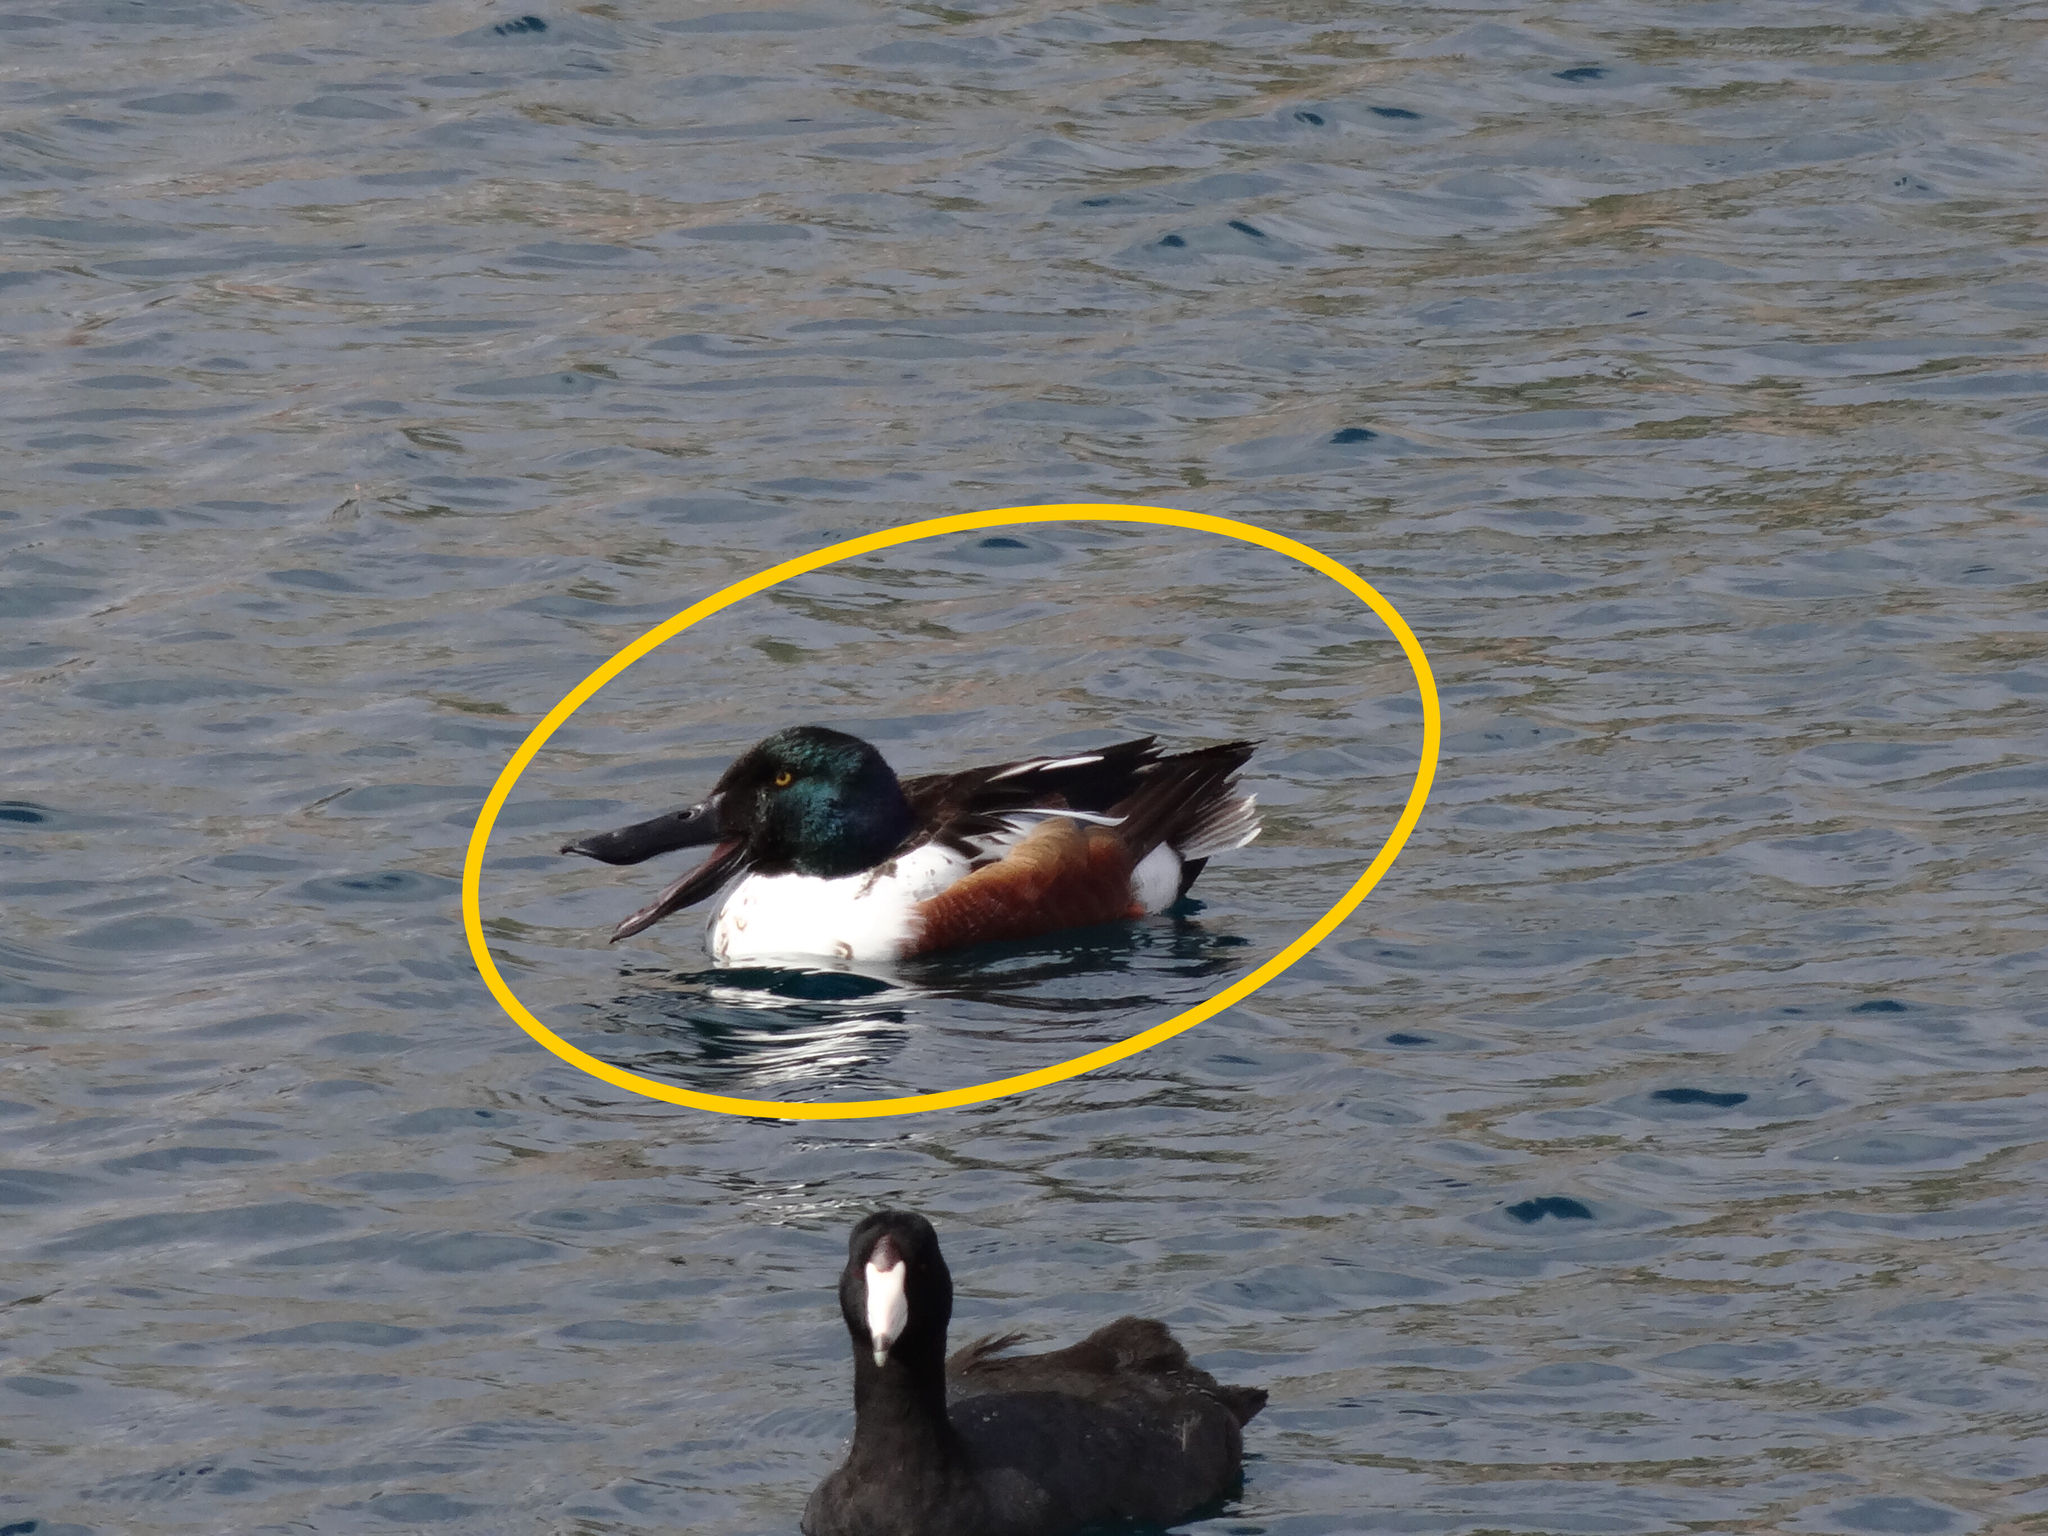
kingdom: Animalia
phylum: Chordata
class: Aves
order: Anseriformes
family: Anatidae
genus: Spatula
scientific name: Spatula clypeata
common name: Northern shoveler
